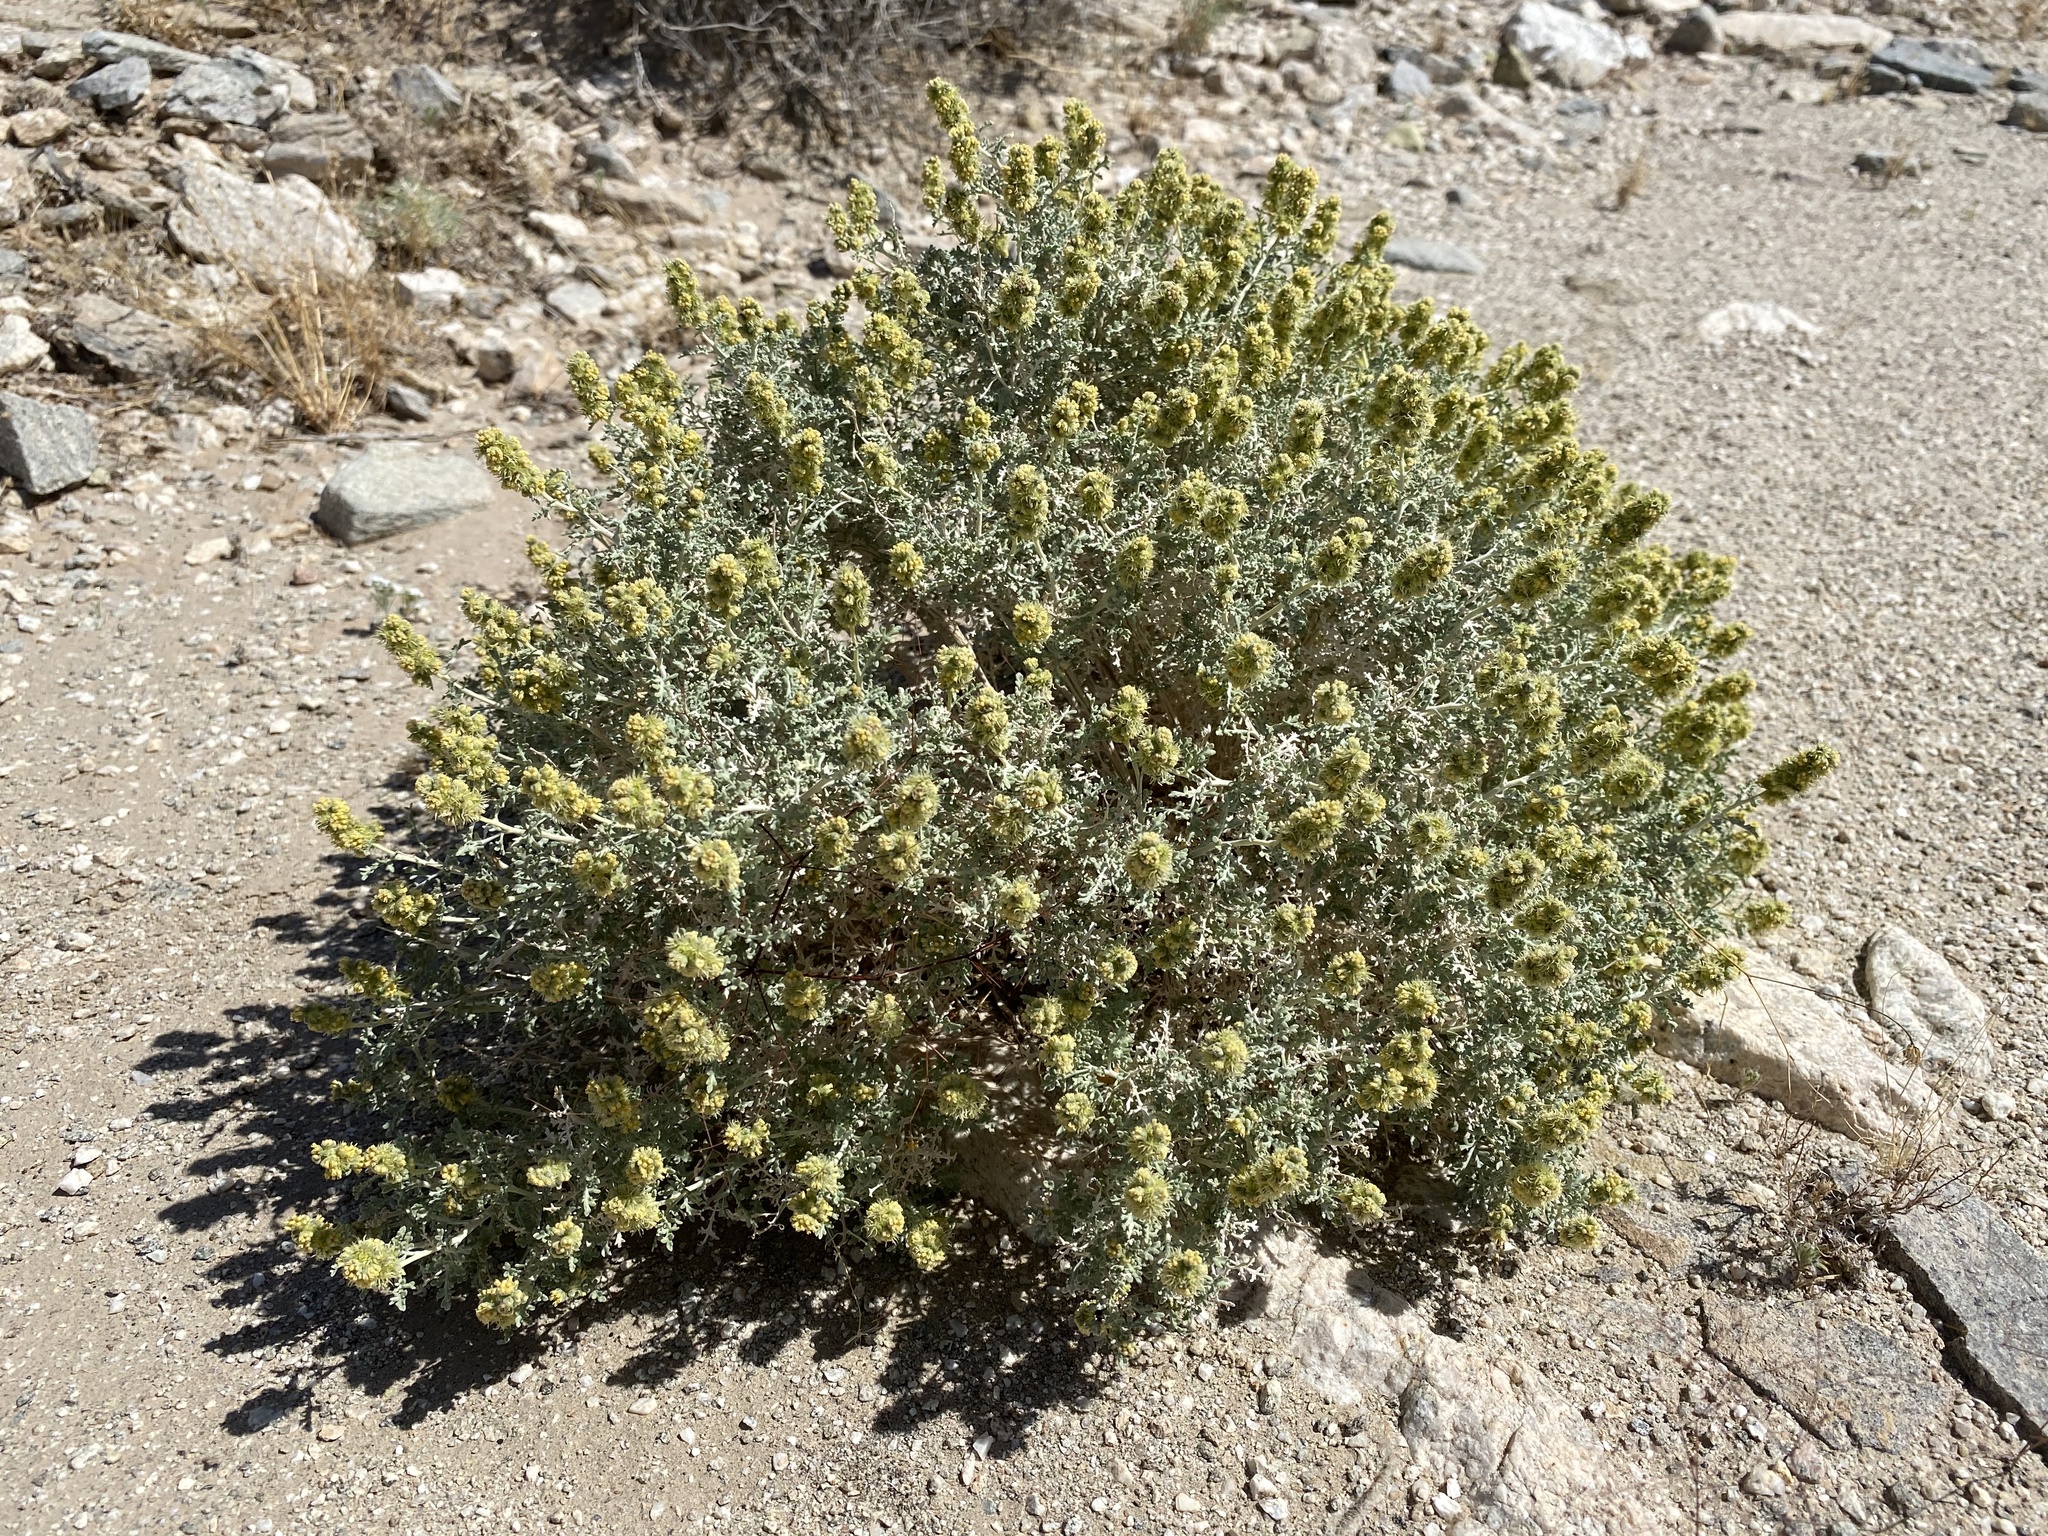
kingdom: Plantae
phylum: Tracheophyta
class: Magnoliopsida
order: Asterales
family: Asteraceae
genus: Ambrosia
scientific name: Ambrosia dumosa
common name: Bur-sage
